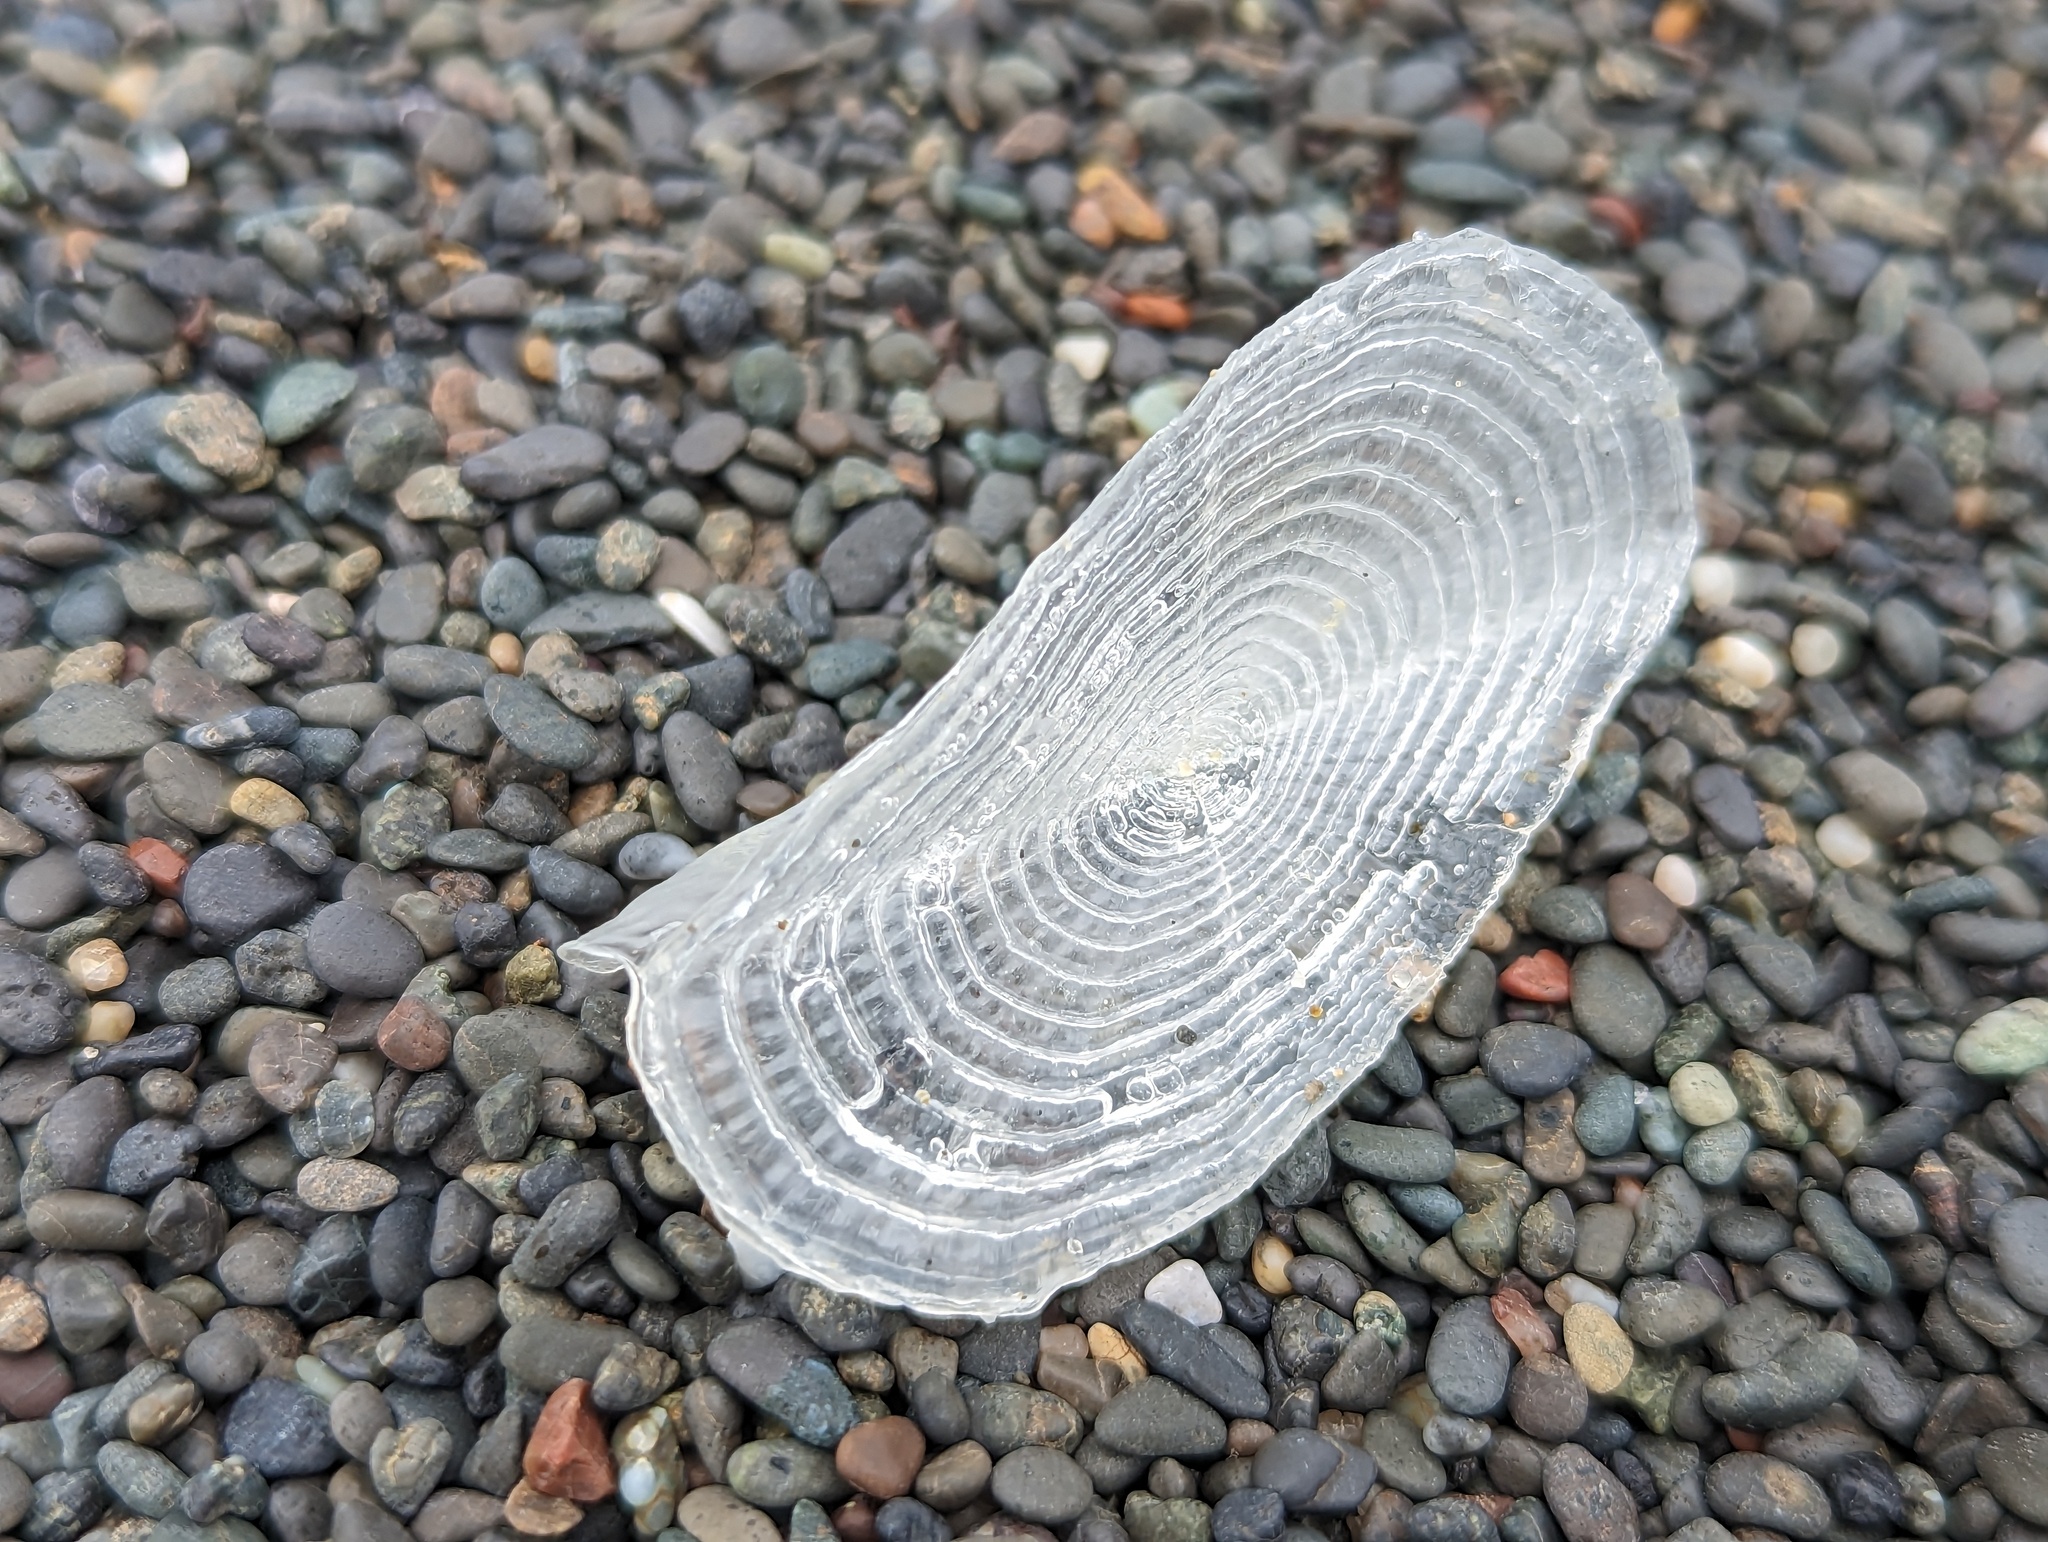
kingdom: Animalia
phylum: Cnidaria
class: Hydrozoa
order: Anthoathecata
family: Porpitidae
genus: Velella
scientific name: Velella velella
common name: By-the-wind-sailor
